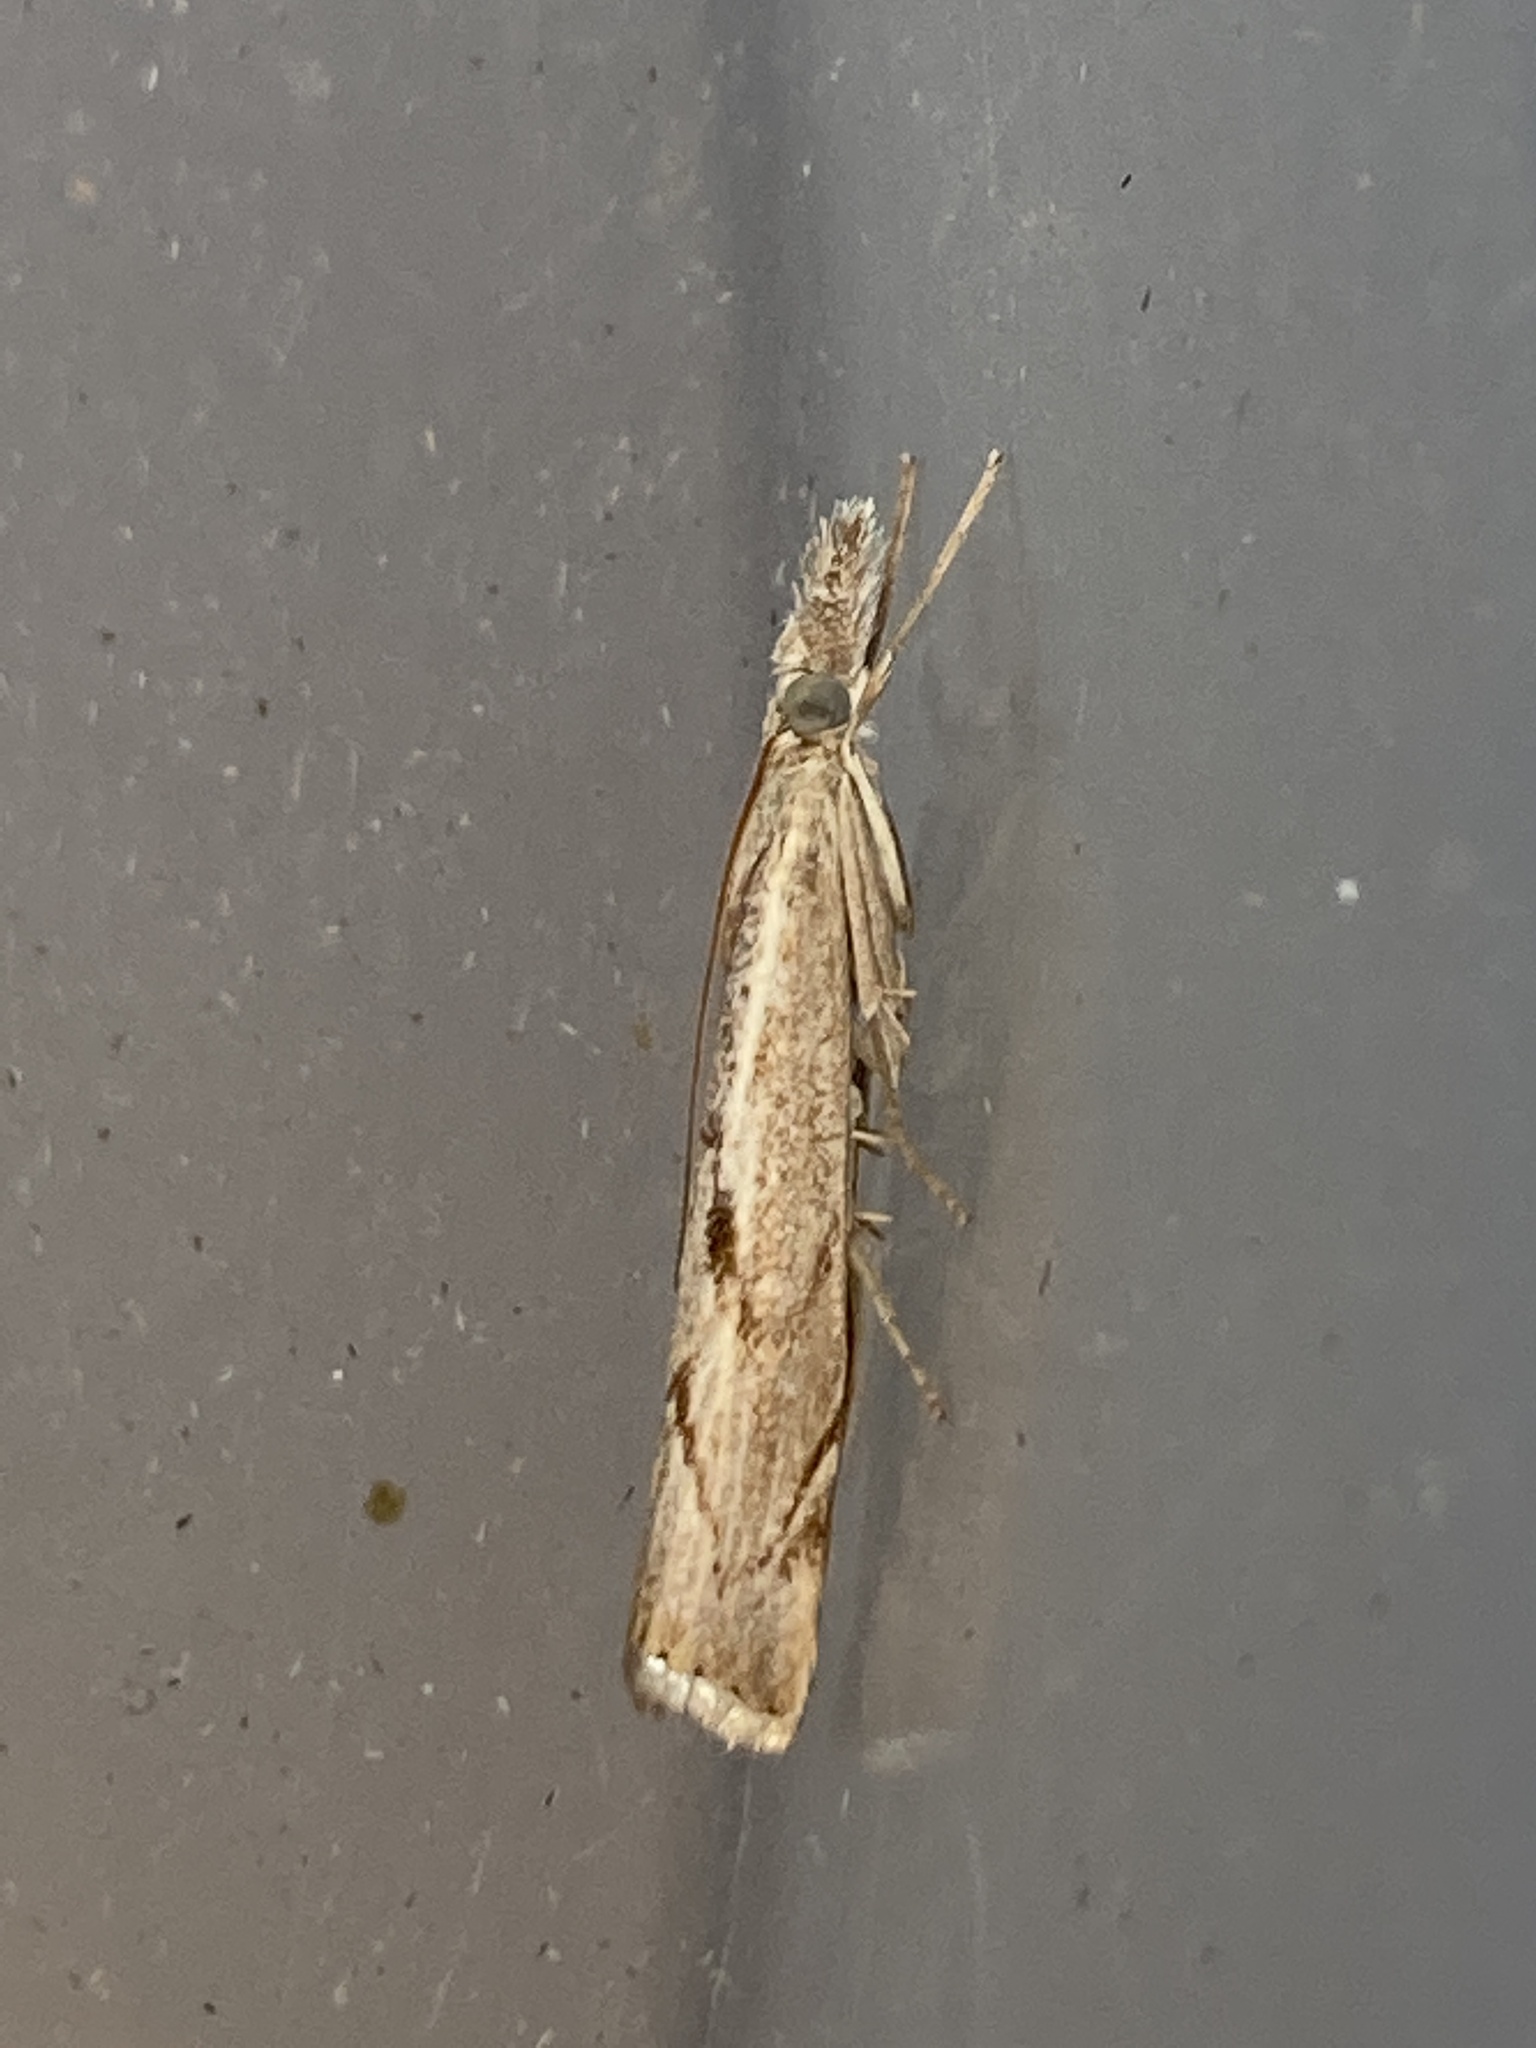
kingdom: Animalia
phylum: Arthropoda
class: Insecta
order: Lepidoptera
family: Crambidae
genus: Agriphila
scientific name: Agriphila geniculea
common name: Elbow-stripe grass-veneer
